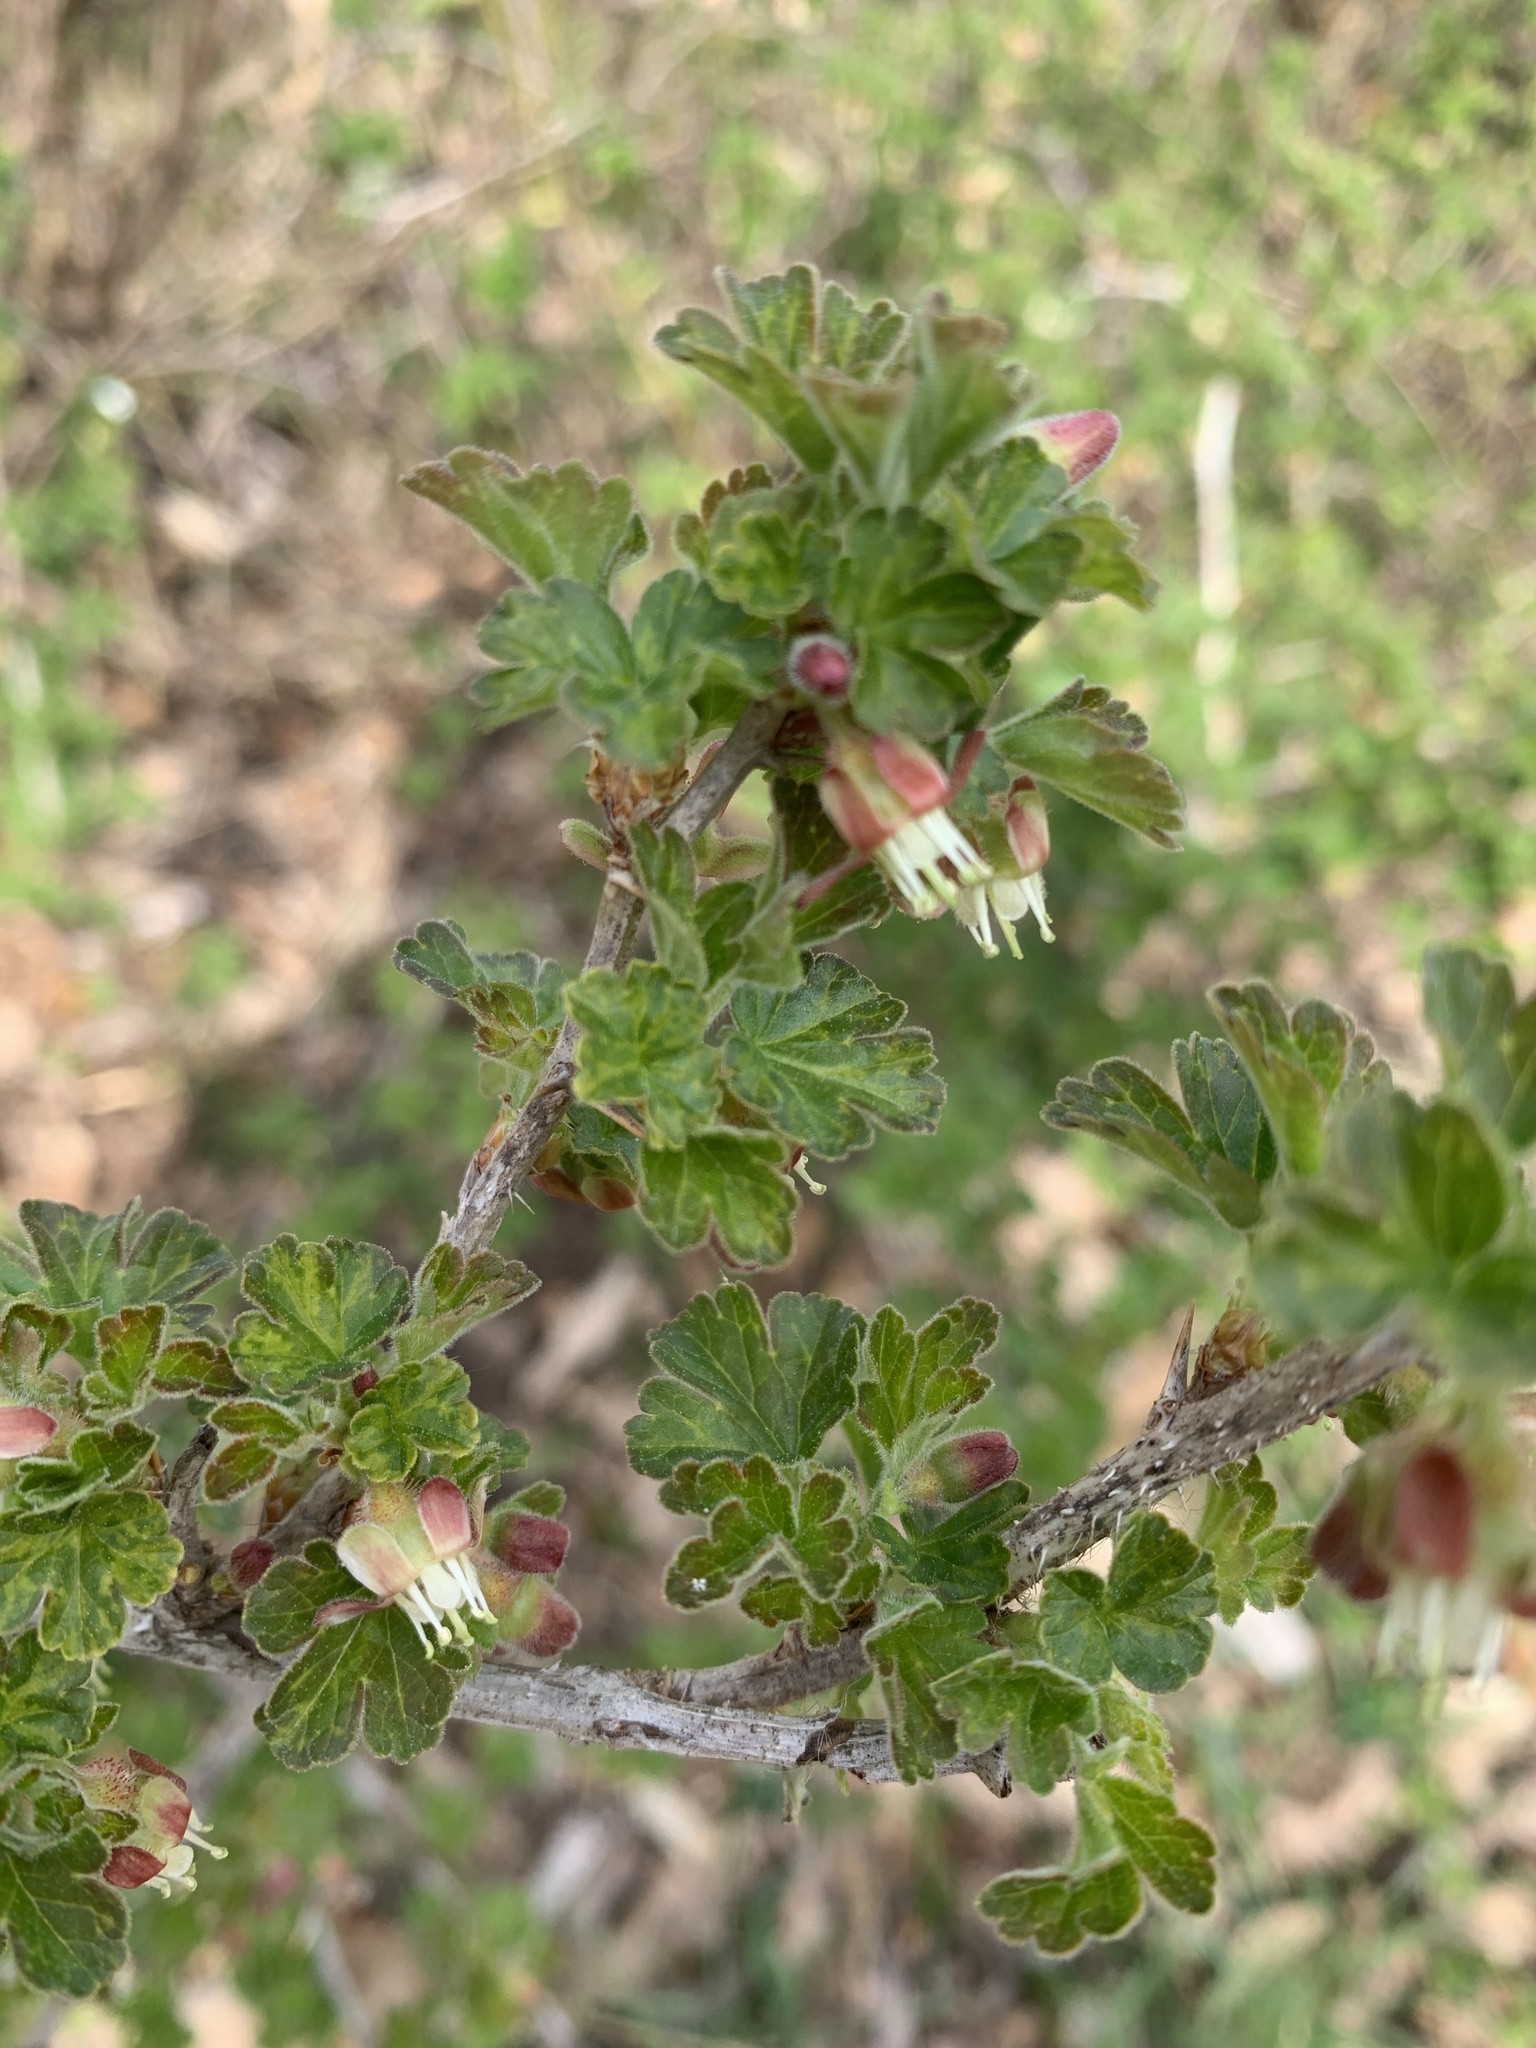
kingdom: Plantae
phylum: Tracheophyta
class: Magnoliopsida
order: Saxifragales
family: Grossulariaceae
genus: Ribes
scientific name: Ribes uva-crispa
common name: Gooseberry
